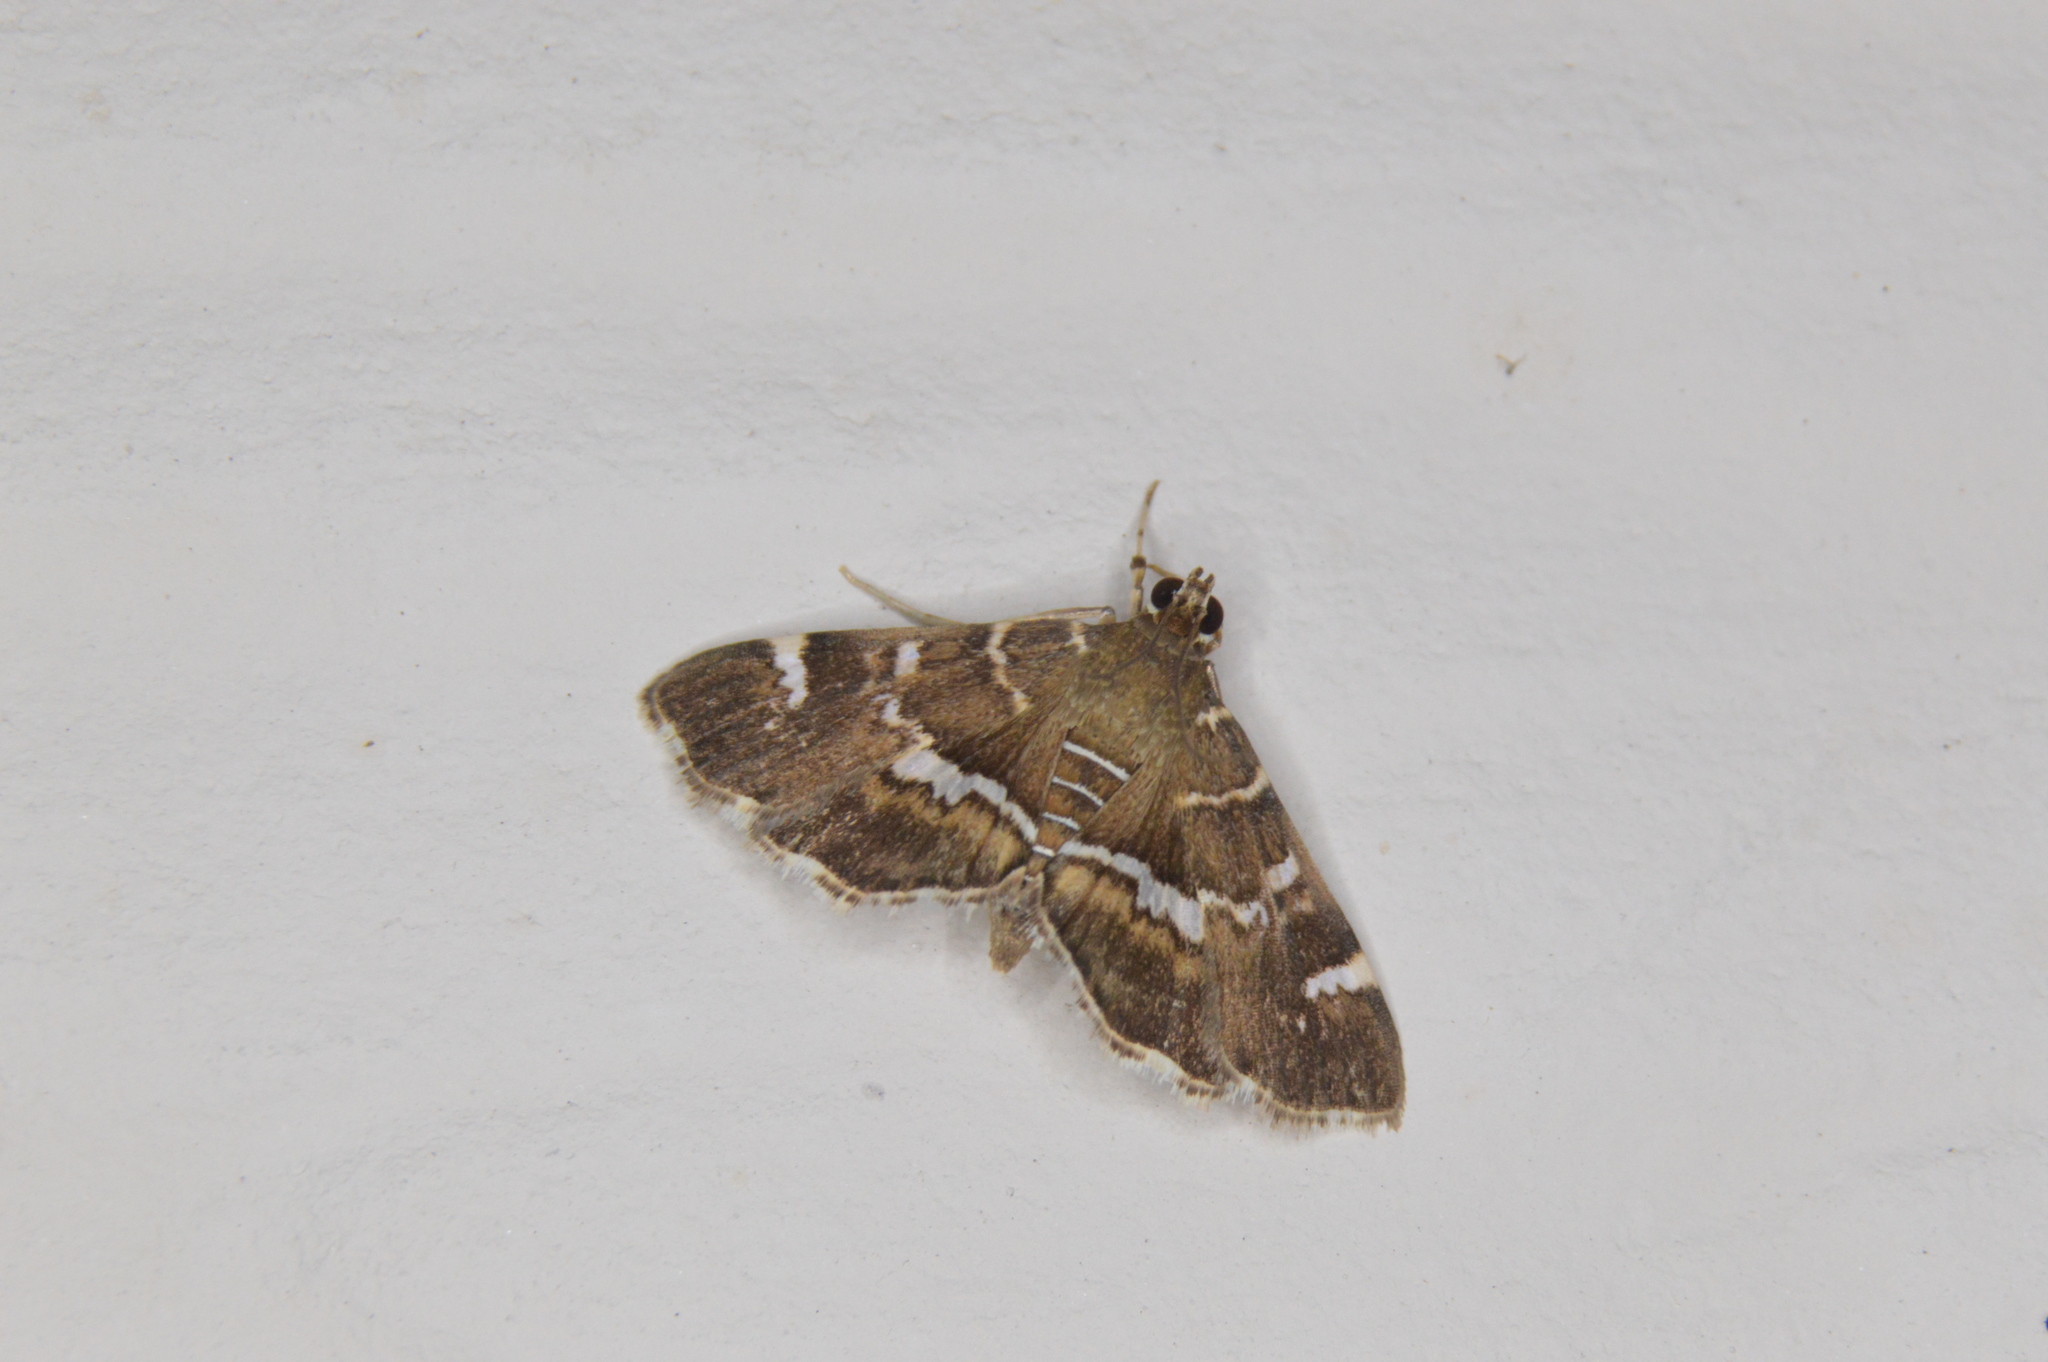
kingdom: Animalia
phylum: Arthropoda
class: Insecta
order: Lepidoptera
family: Crambidae
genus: Hymenia
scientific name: Hymenia perspectalis
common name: Spotted beet webworm
